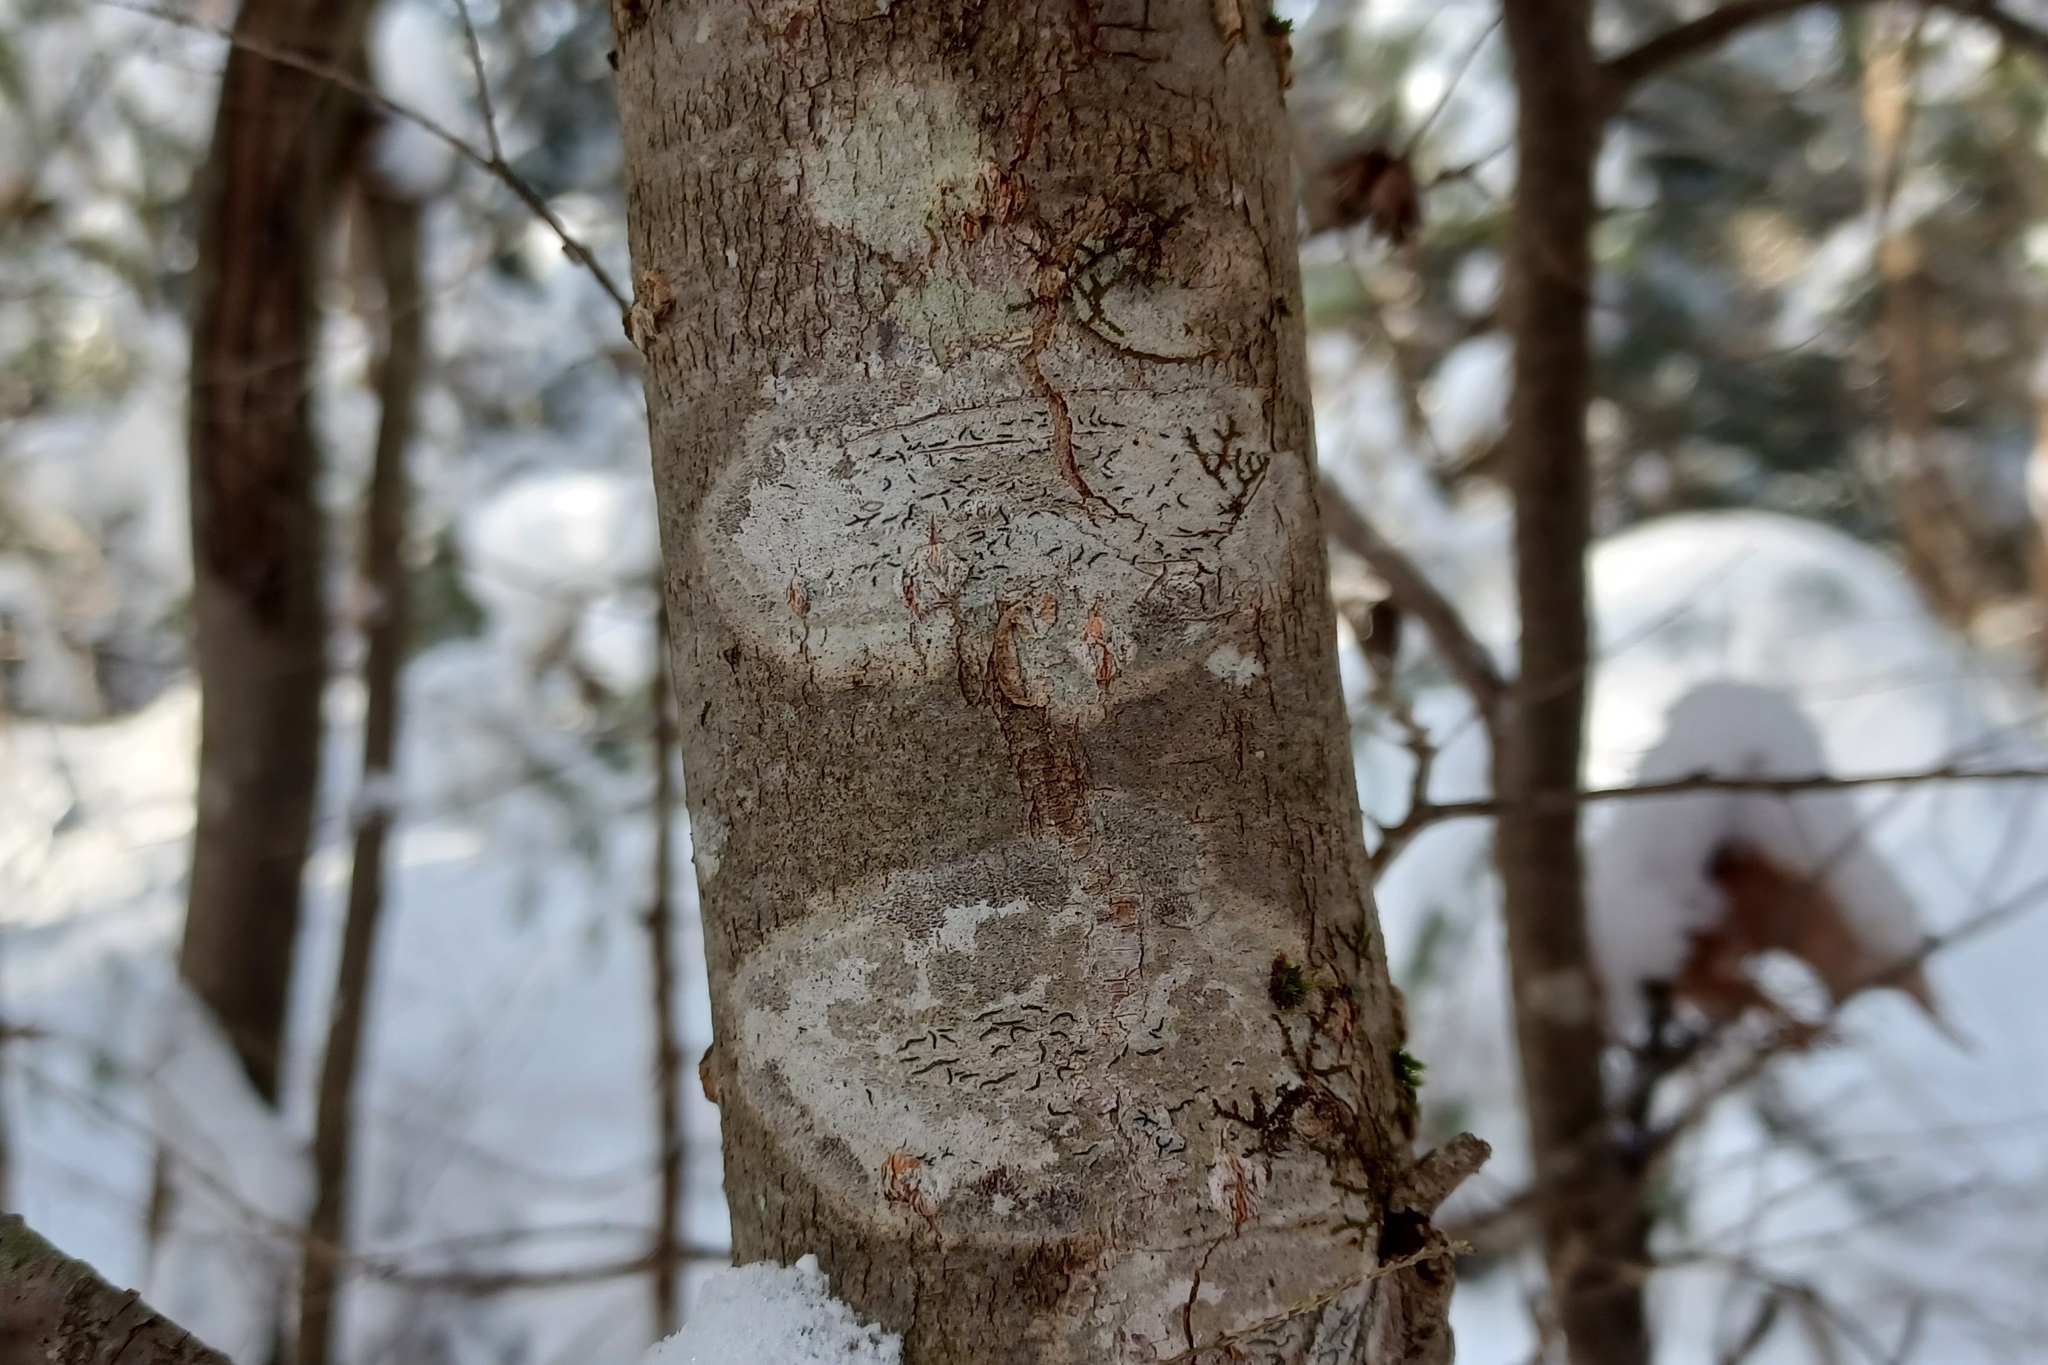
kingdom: Fungi
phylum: Ascomycota
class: Lecanoromycetes
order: Ostropales
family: Graphidaceae
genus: Graphis
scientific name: Graphis scripta
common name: Script lichen
